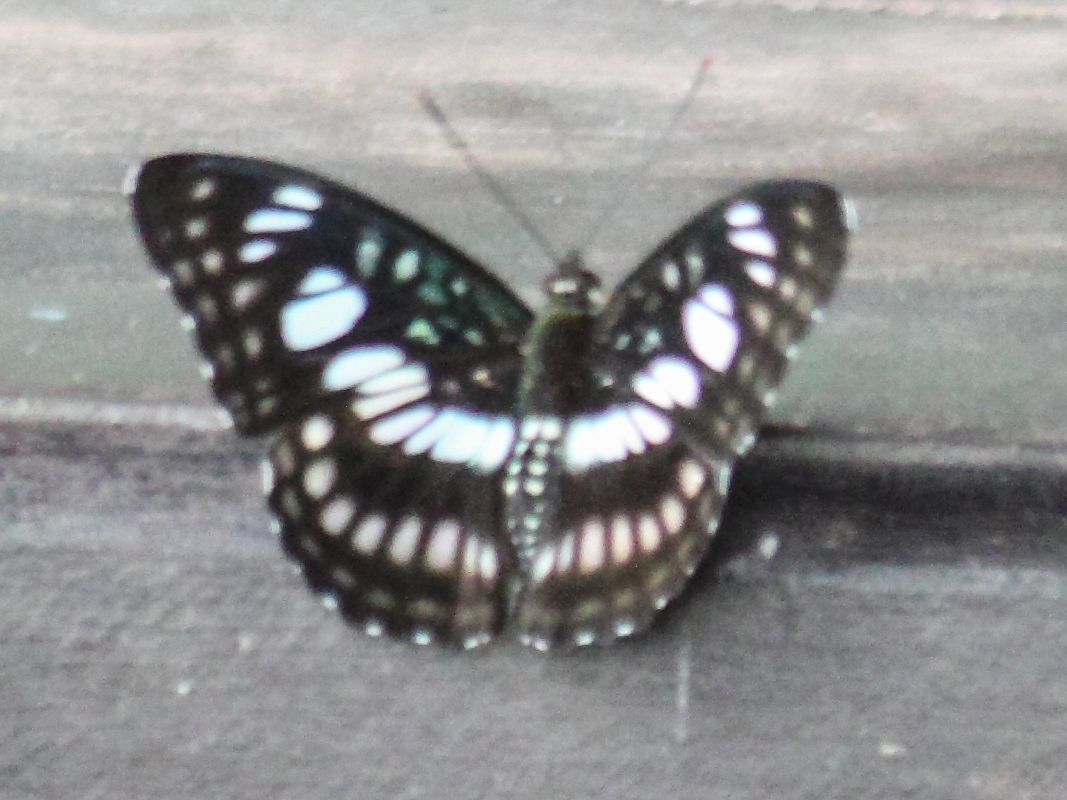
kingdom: Animalia
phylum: Arthropoda
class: Insecta
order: Lepidoptera
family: Nymphalidae
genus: Parathyma
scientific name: Parathyma ranga
